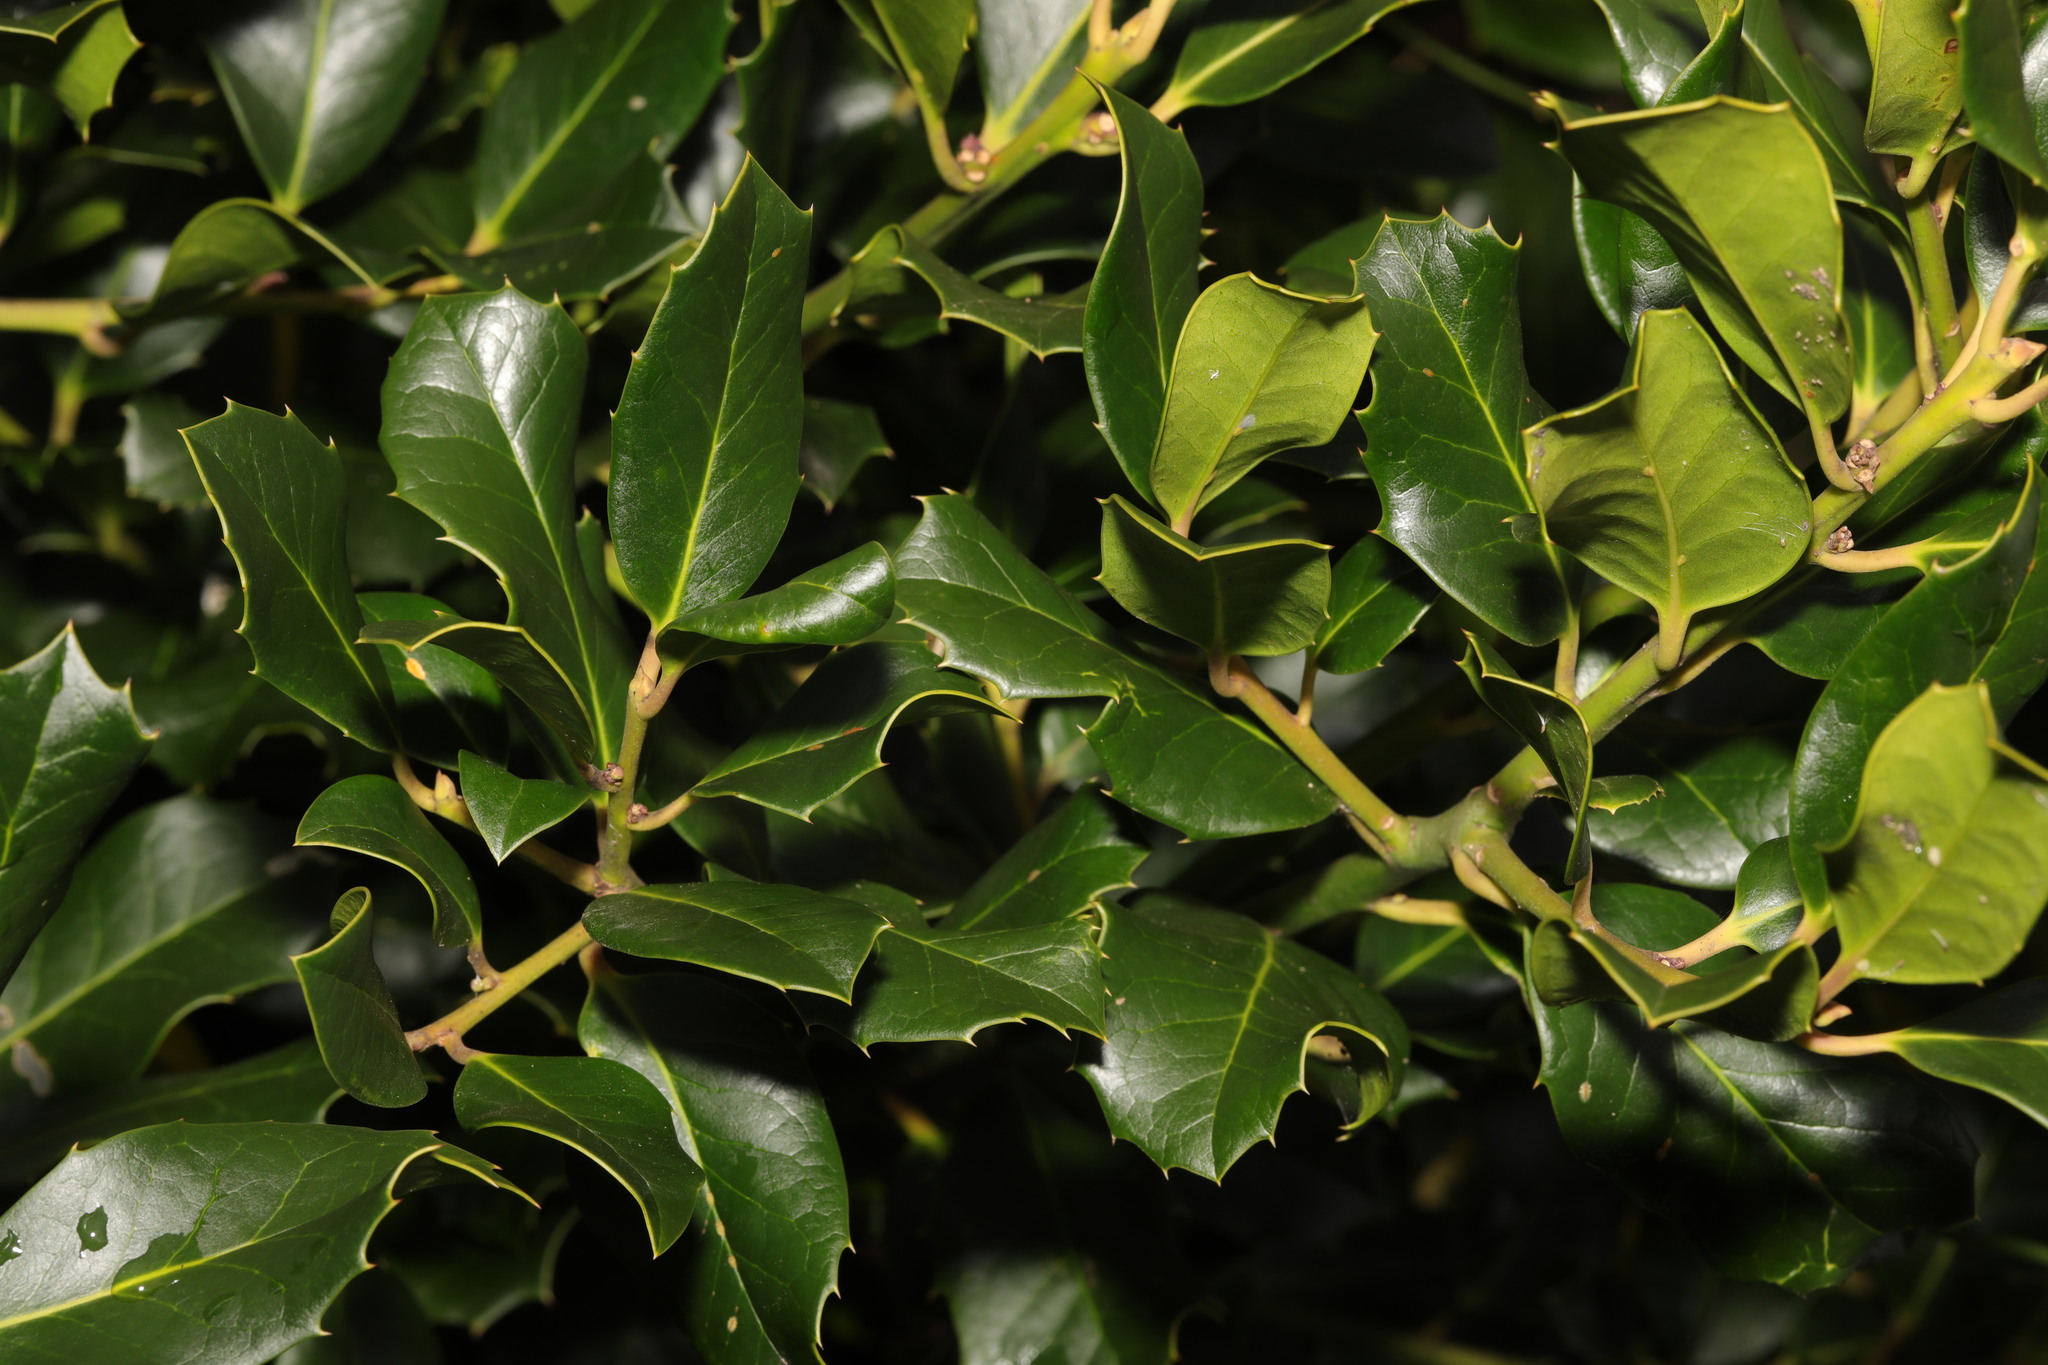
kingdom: Plantae
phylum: Tracheophyta
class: Magnoliopsida
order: Aquifoliales
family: Aquifoliaceae
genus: Ilex
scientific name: Ilex aquifolium
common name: English holly
